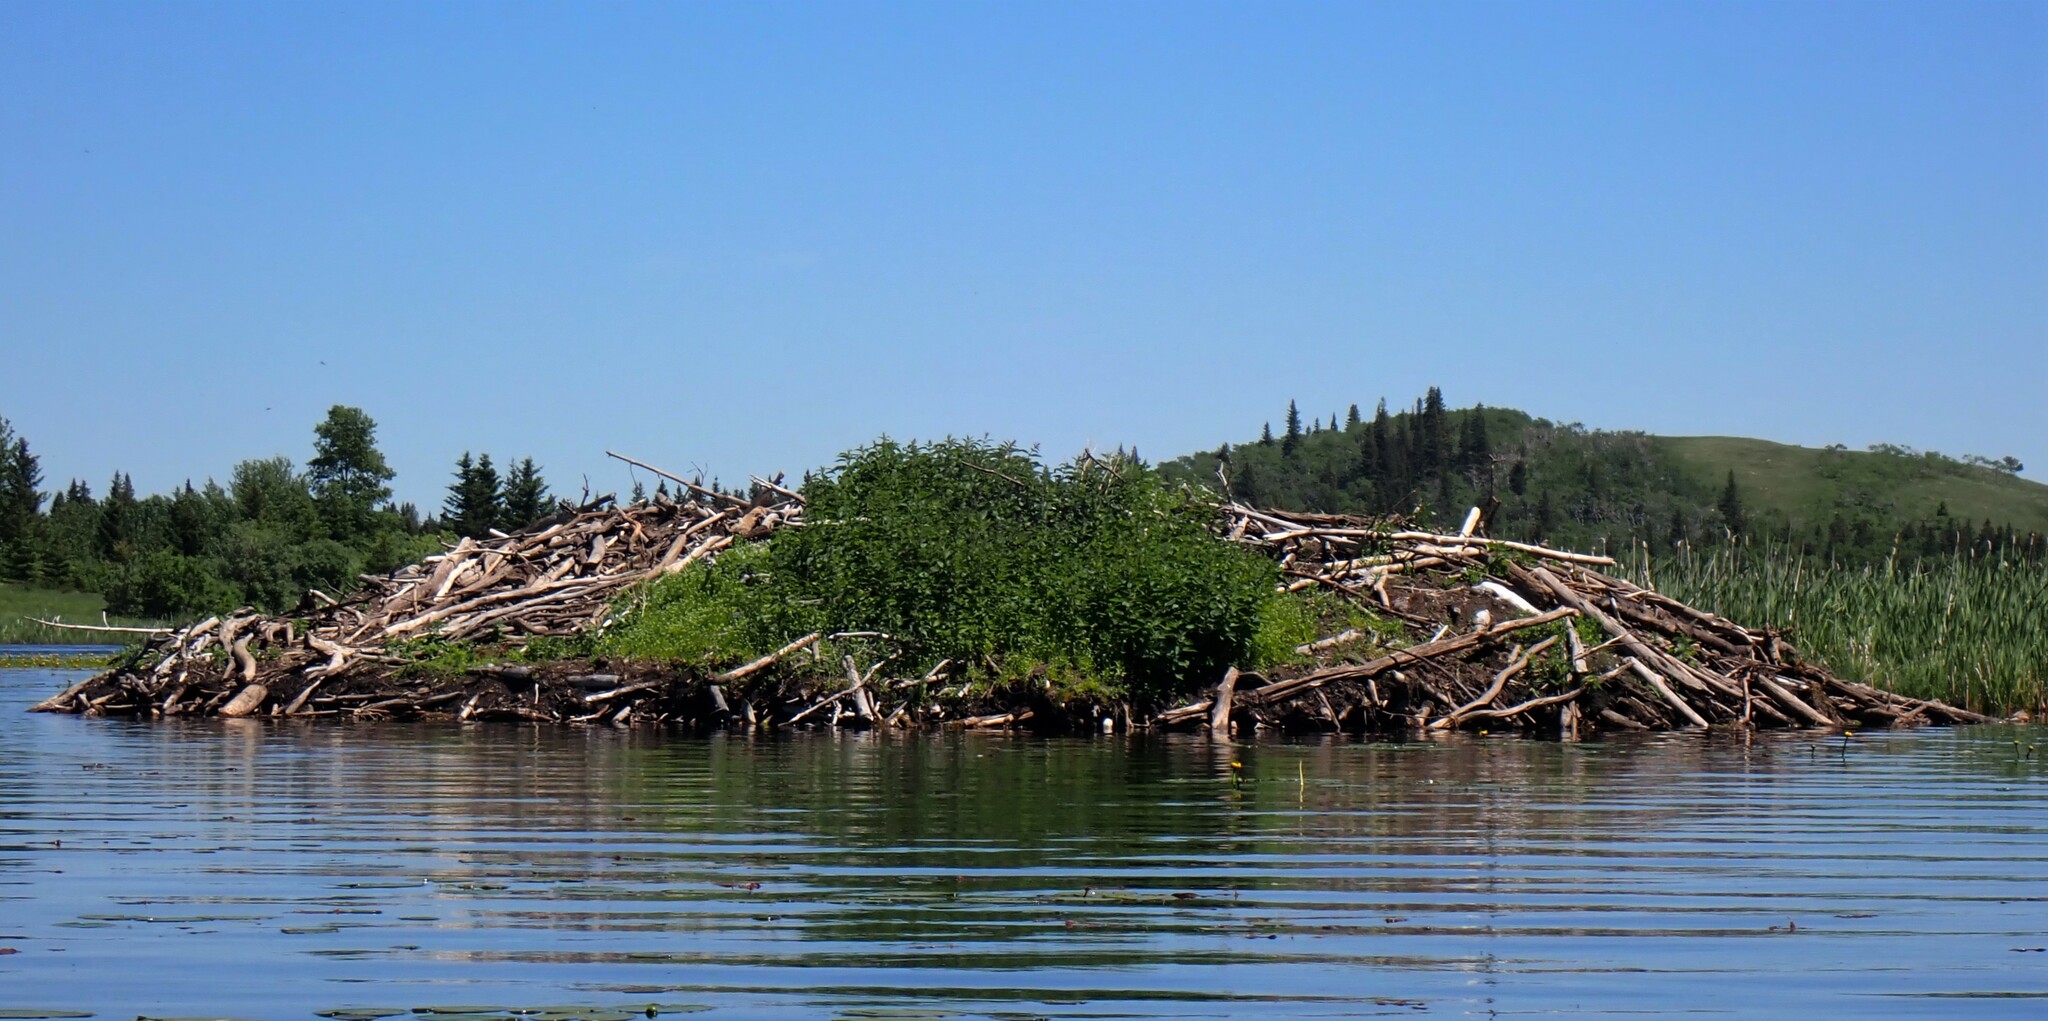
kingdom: Animalia
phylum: Chordata
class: Mammalia
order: Rodentia
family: Castoridae
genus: Castor
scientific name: Castor canadensis
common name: American beaver
